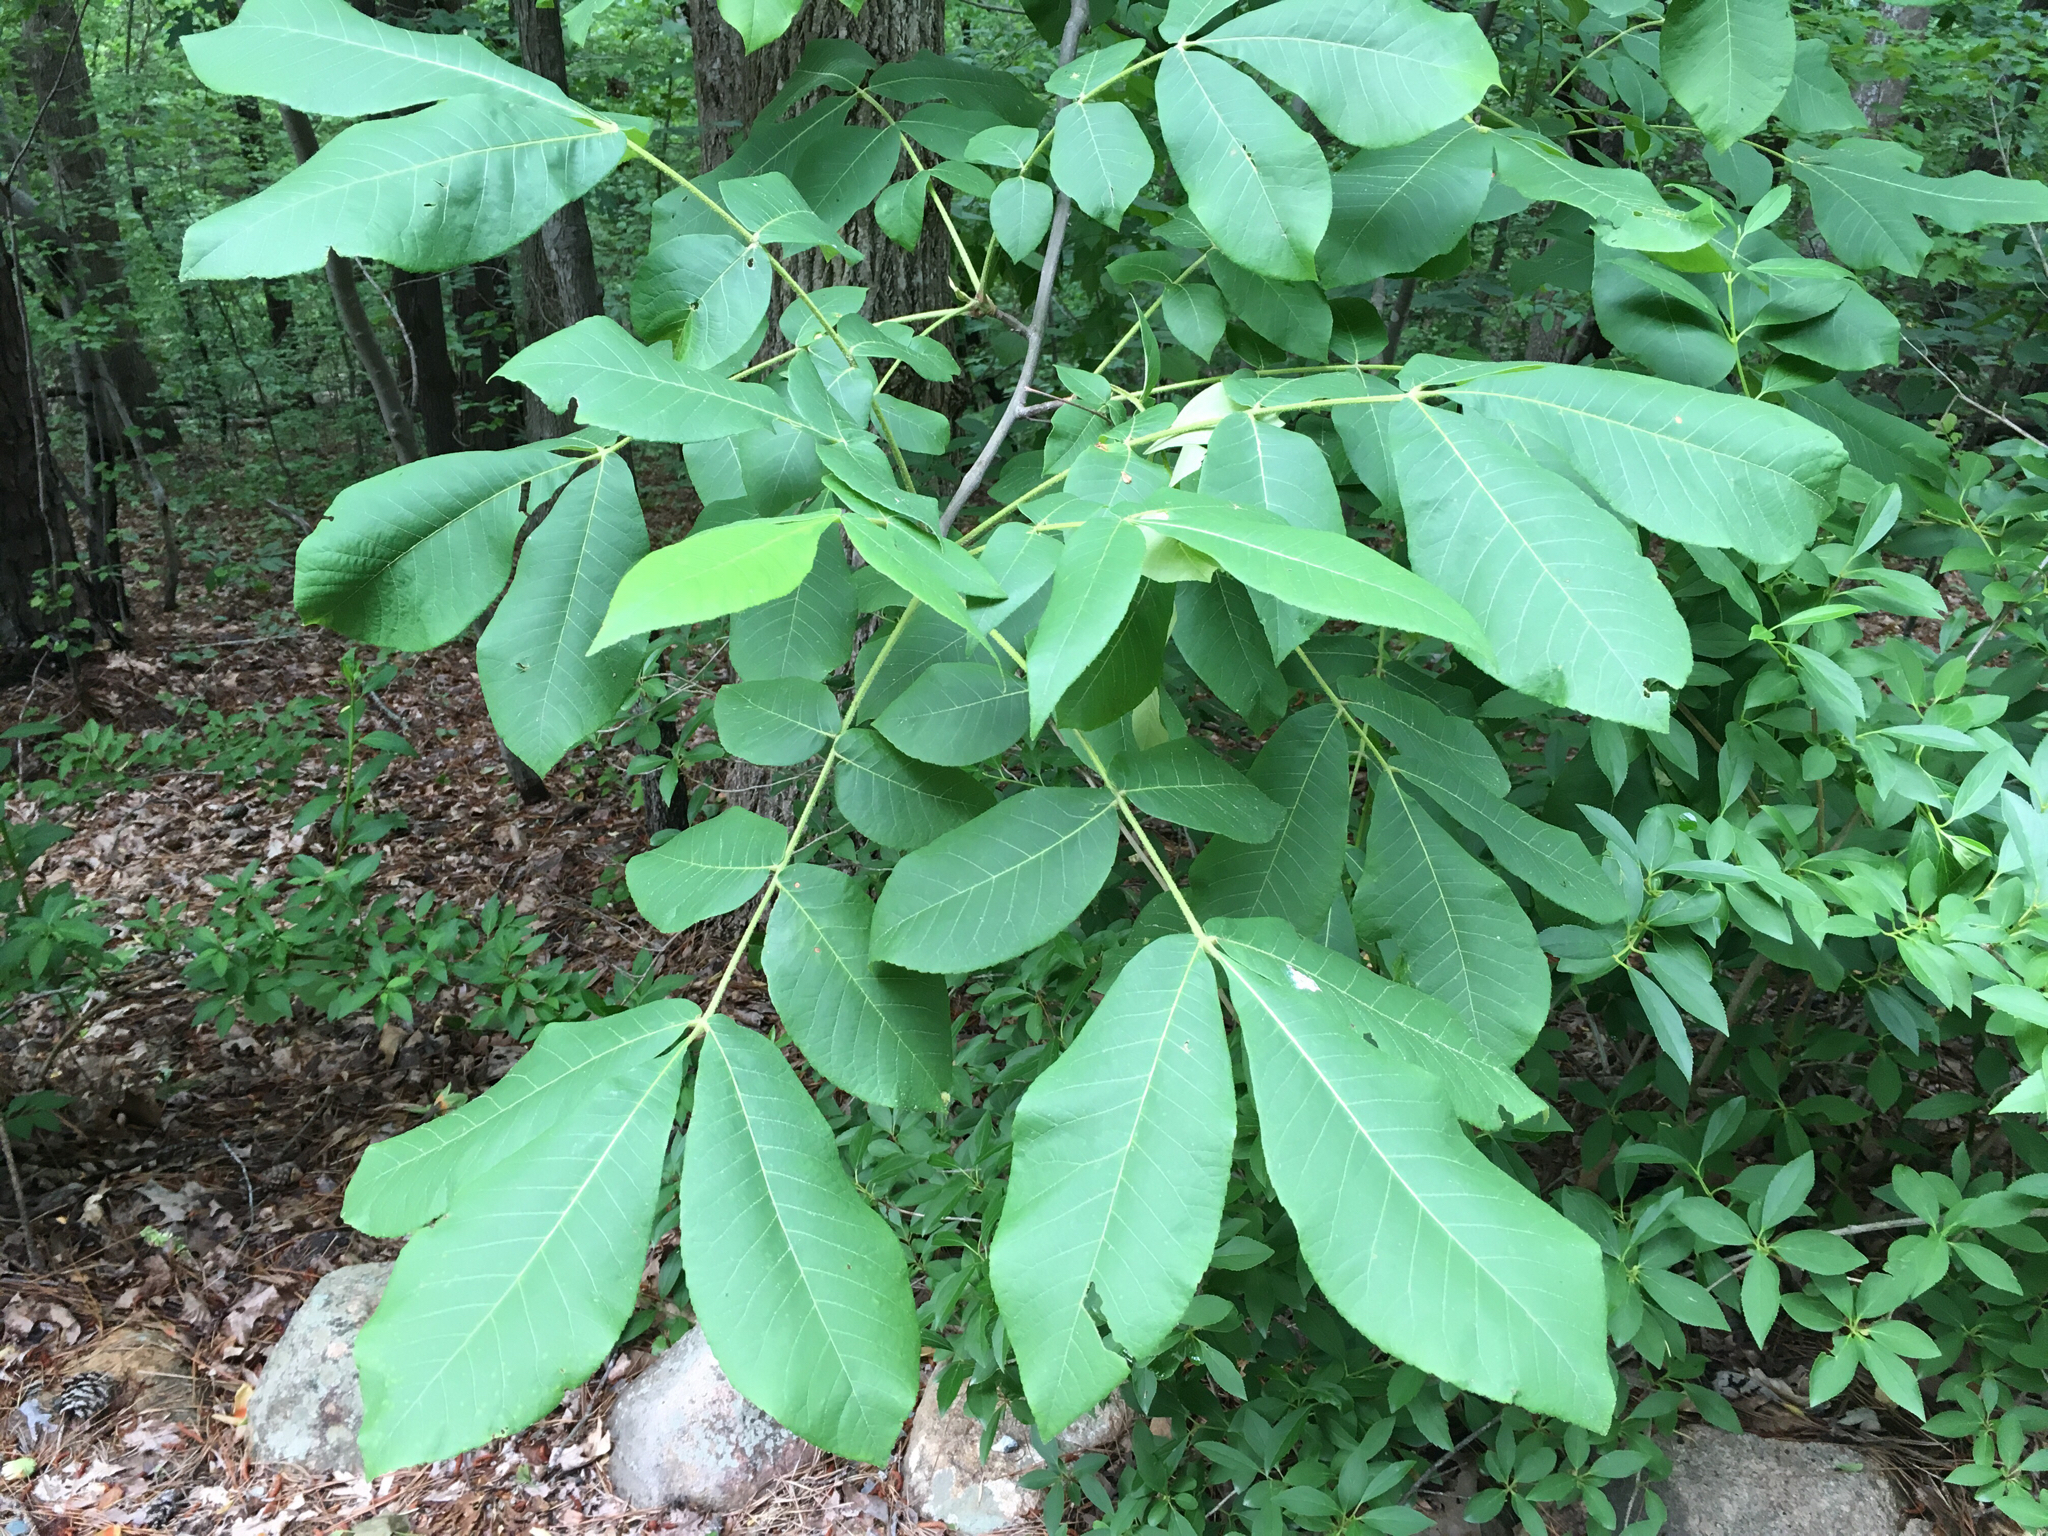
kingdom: Plantae
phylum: Tracheophyta
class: Magnoliopsida
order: Fagales
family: Juglandaceae
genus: Carya
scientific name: Carya alba
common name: Mockernut hickory
